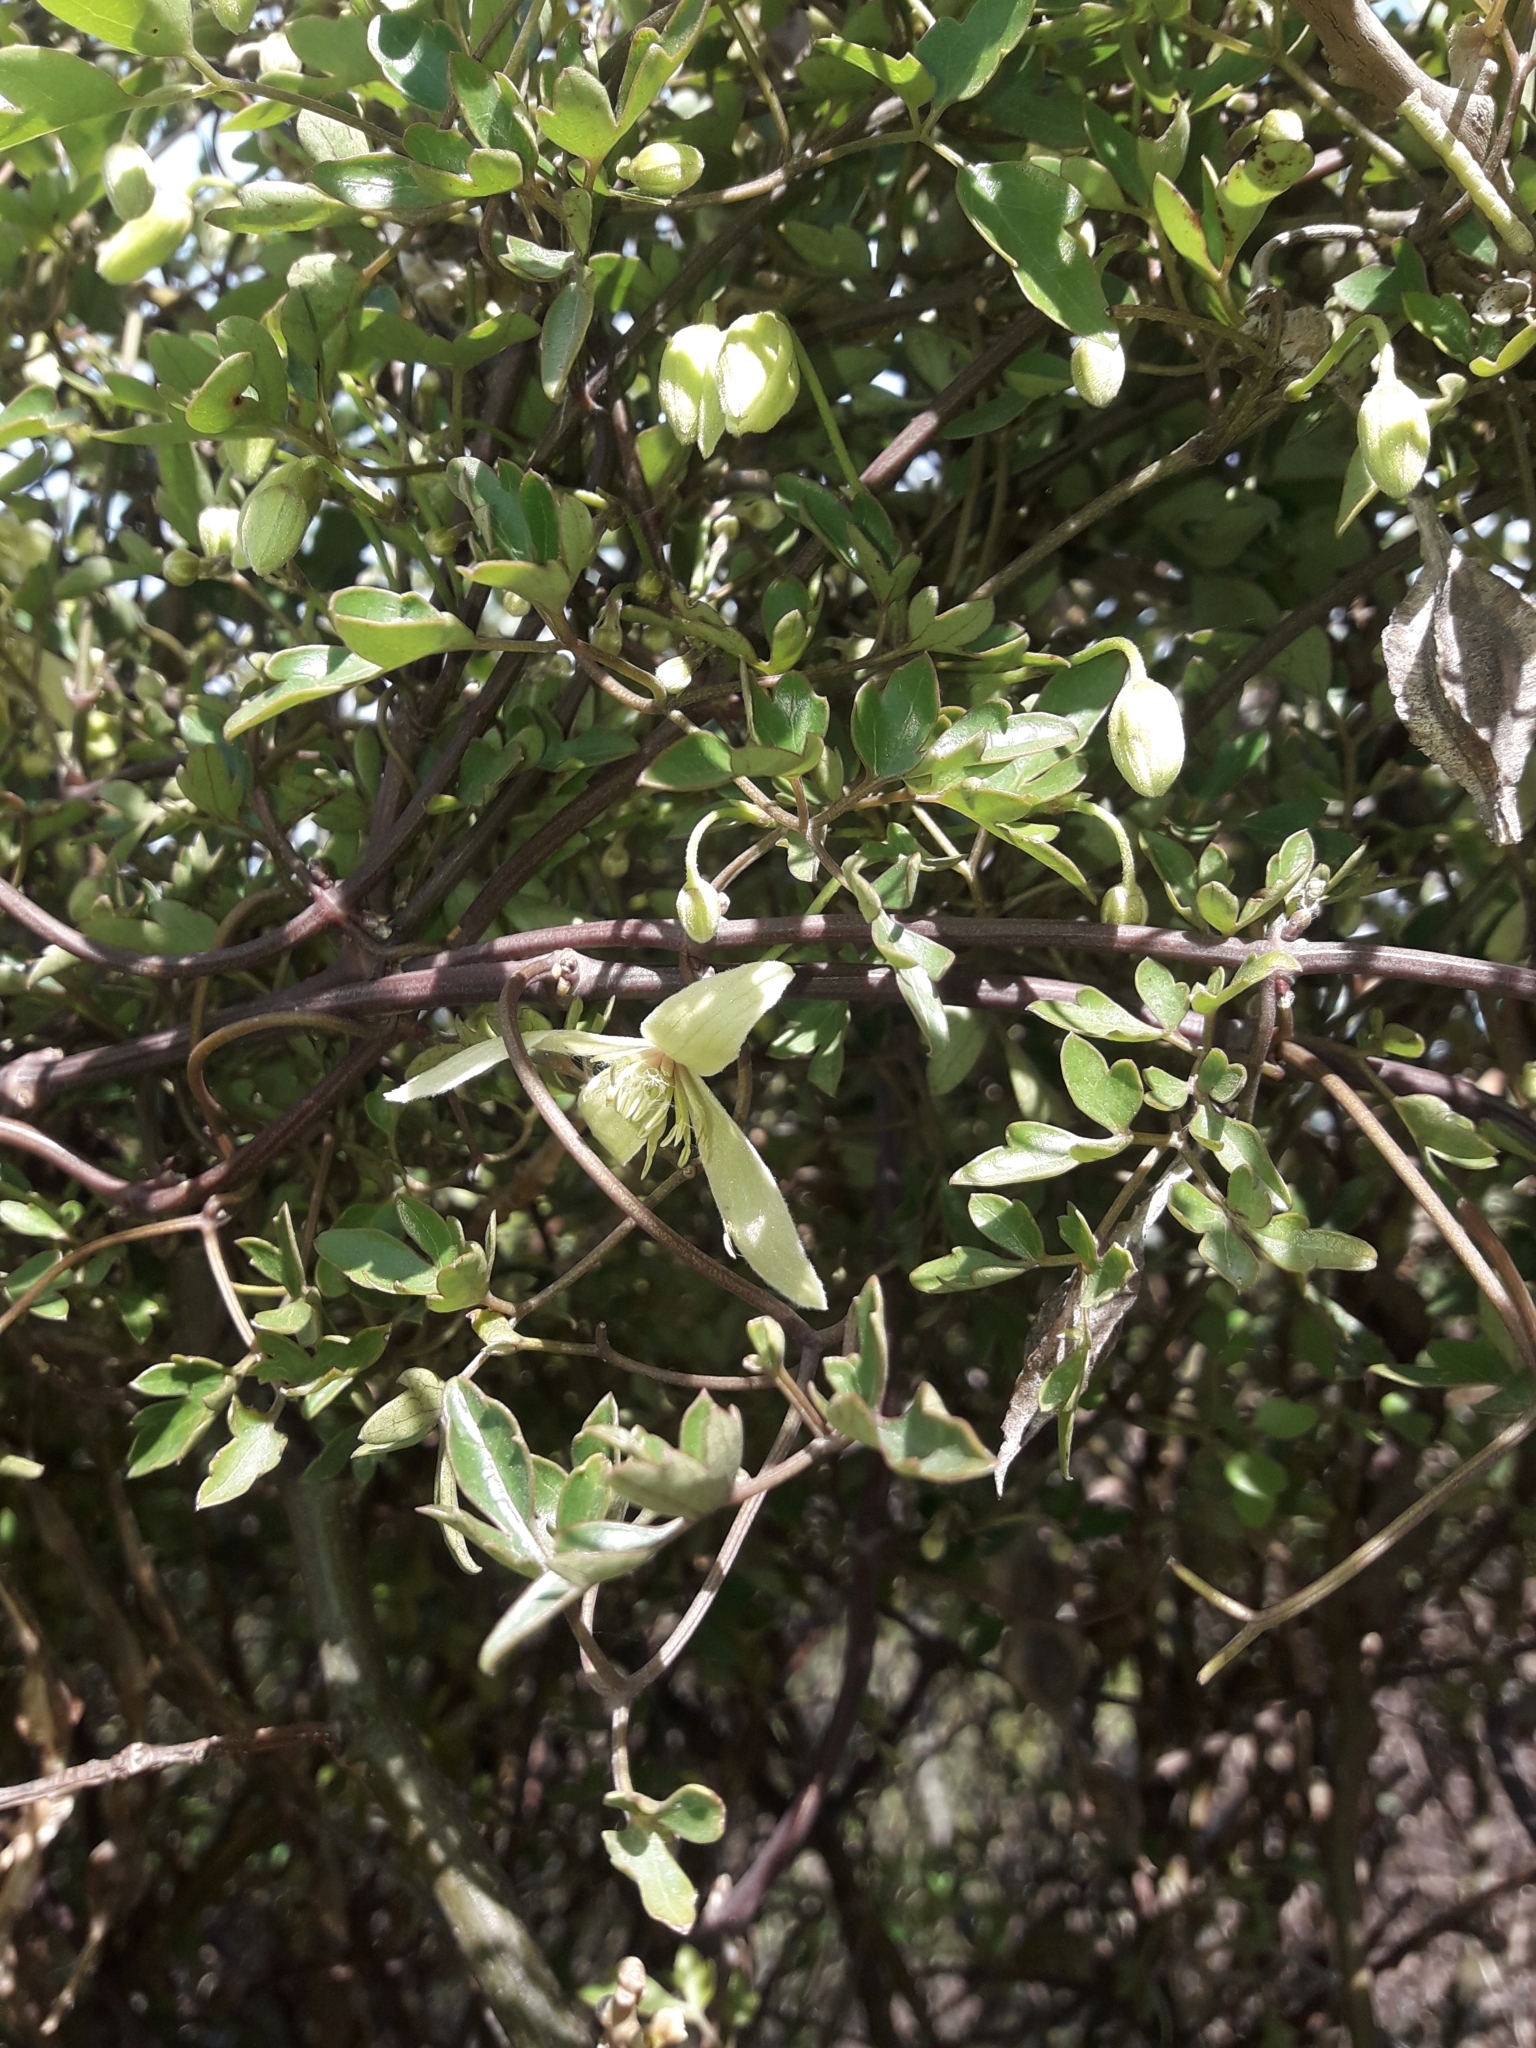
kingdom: Plantae
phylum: Tracheophyta
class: Magnoliopsida
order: Ranunculales
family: Ranunculaceae
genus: Clematis
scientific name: Clematis forsteri
